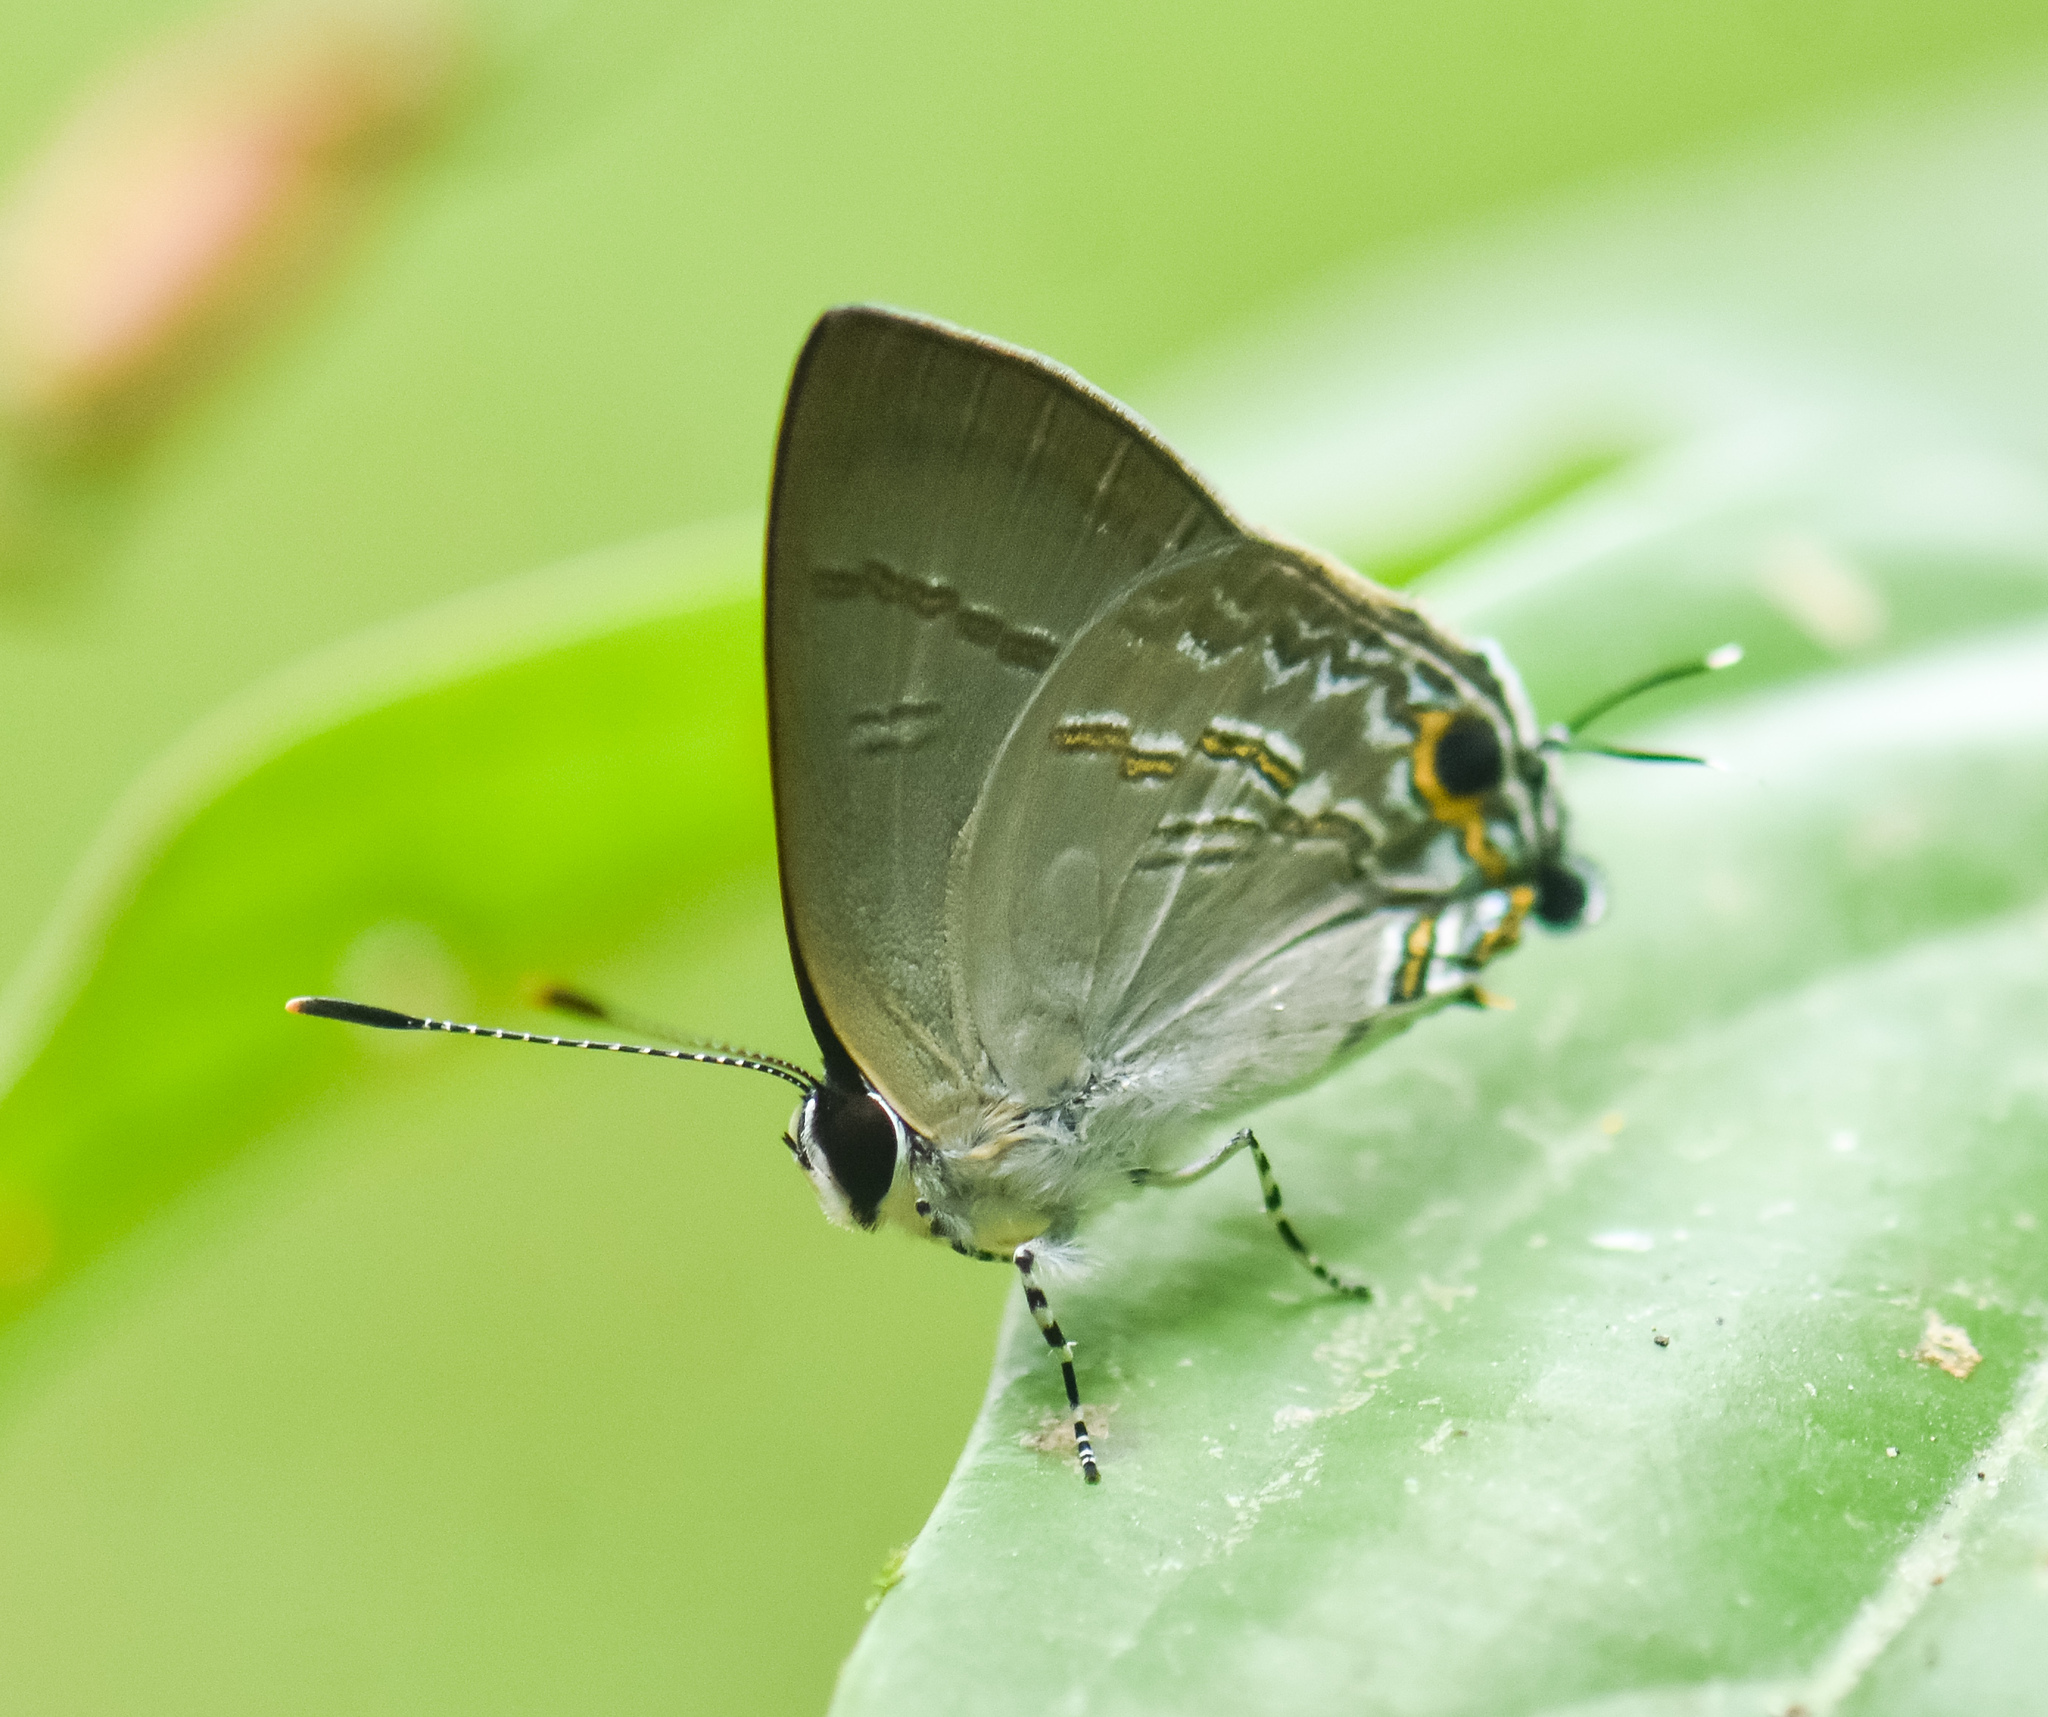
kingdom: Animalia
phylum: Arthropoda
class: Insecta
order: Lepidoptera
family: Lycaenidae
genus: Sinthusa
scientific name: Sinthusa nasaka
